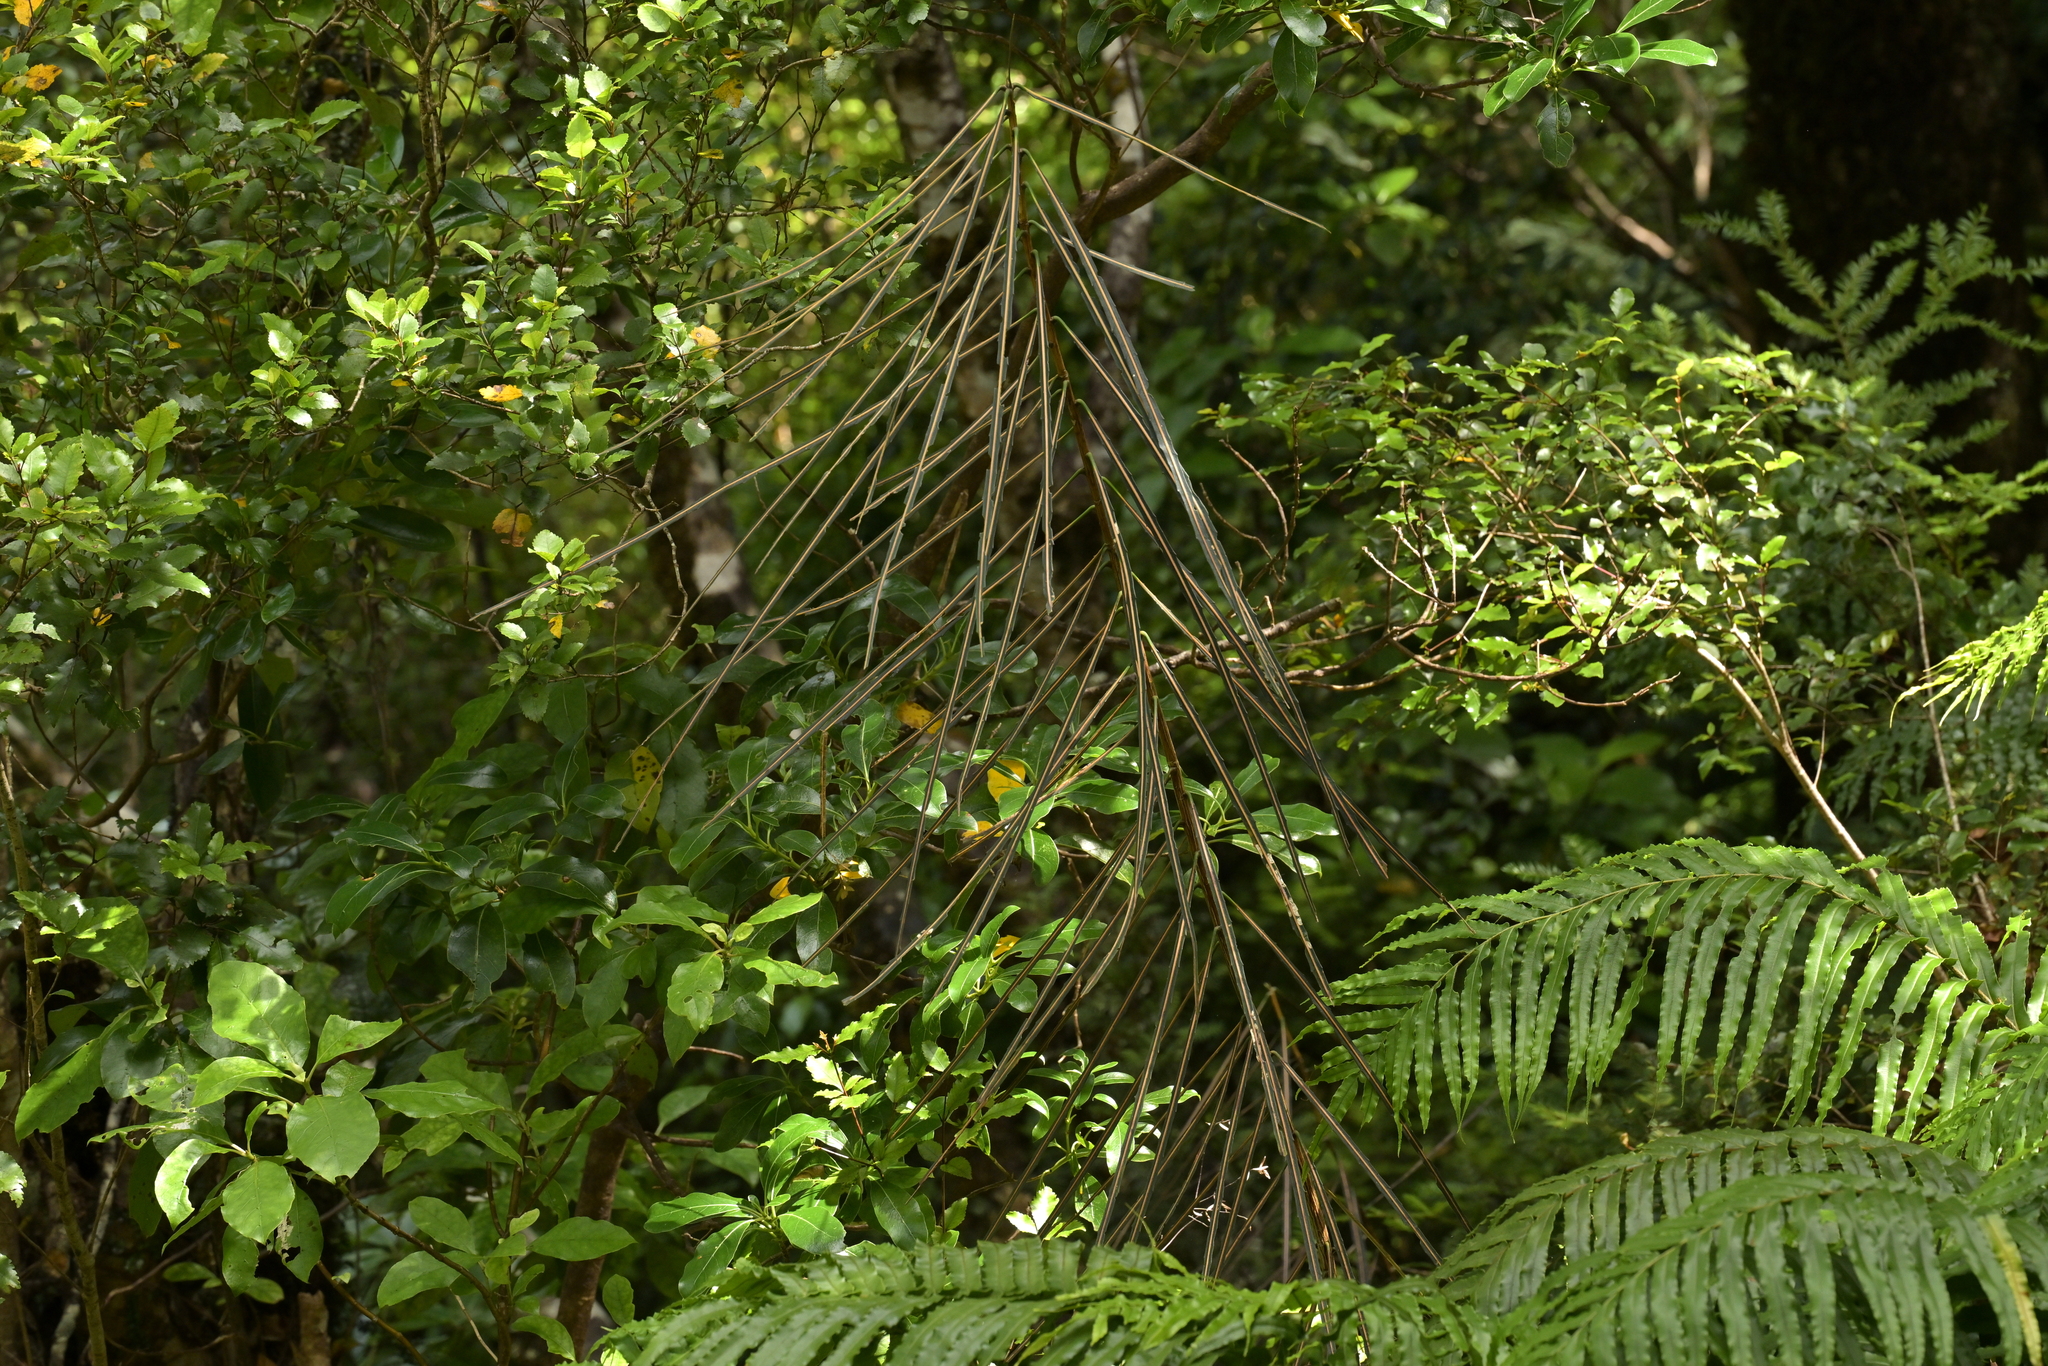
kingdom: Plantae
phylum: Tracheophyta
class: Magnoliopsida
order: Apiales
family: Araliaceae
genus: Pseudopanax
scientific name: Pseudopanax crassifolius
